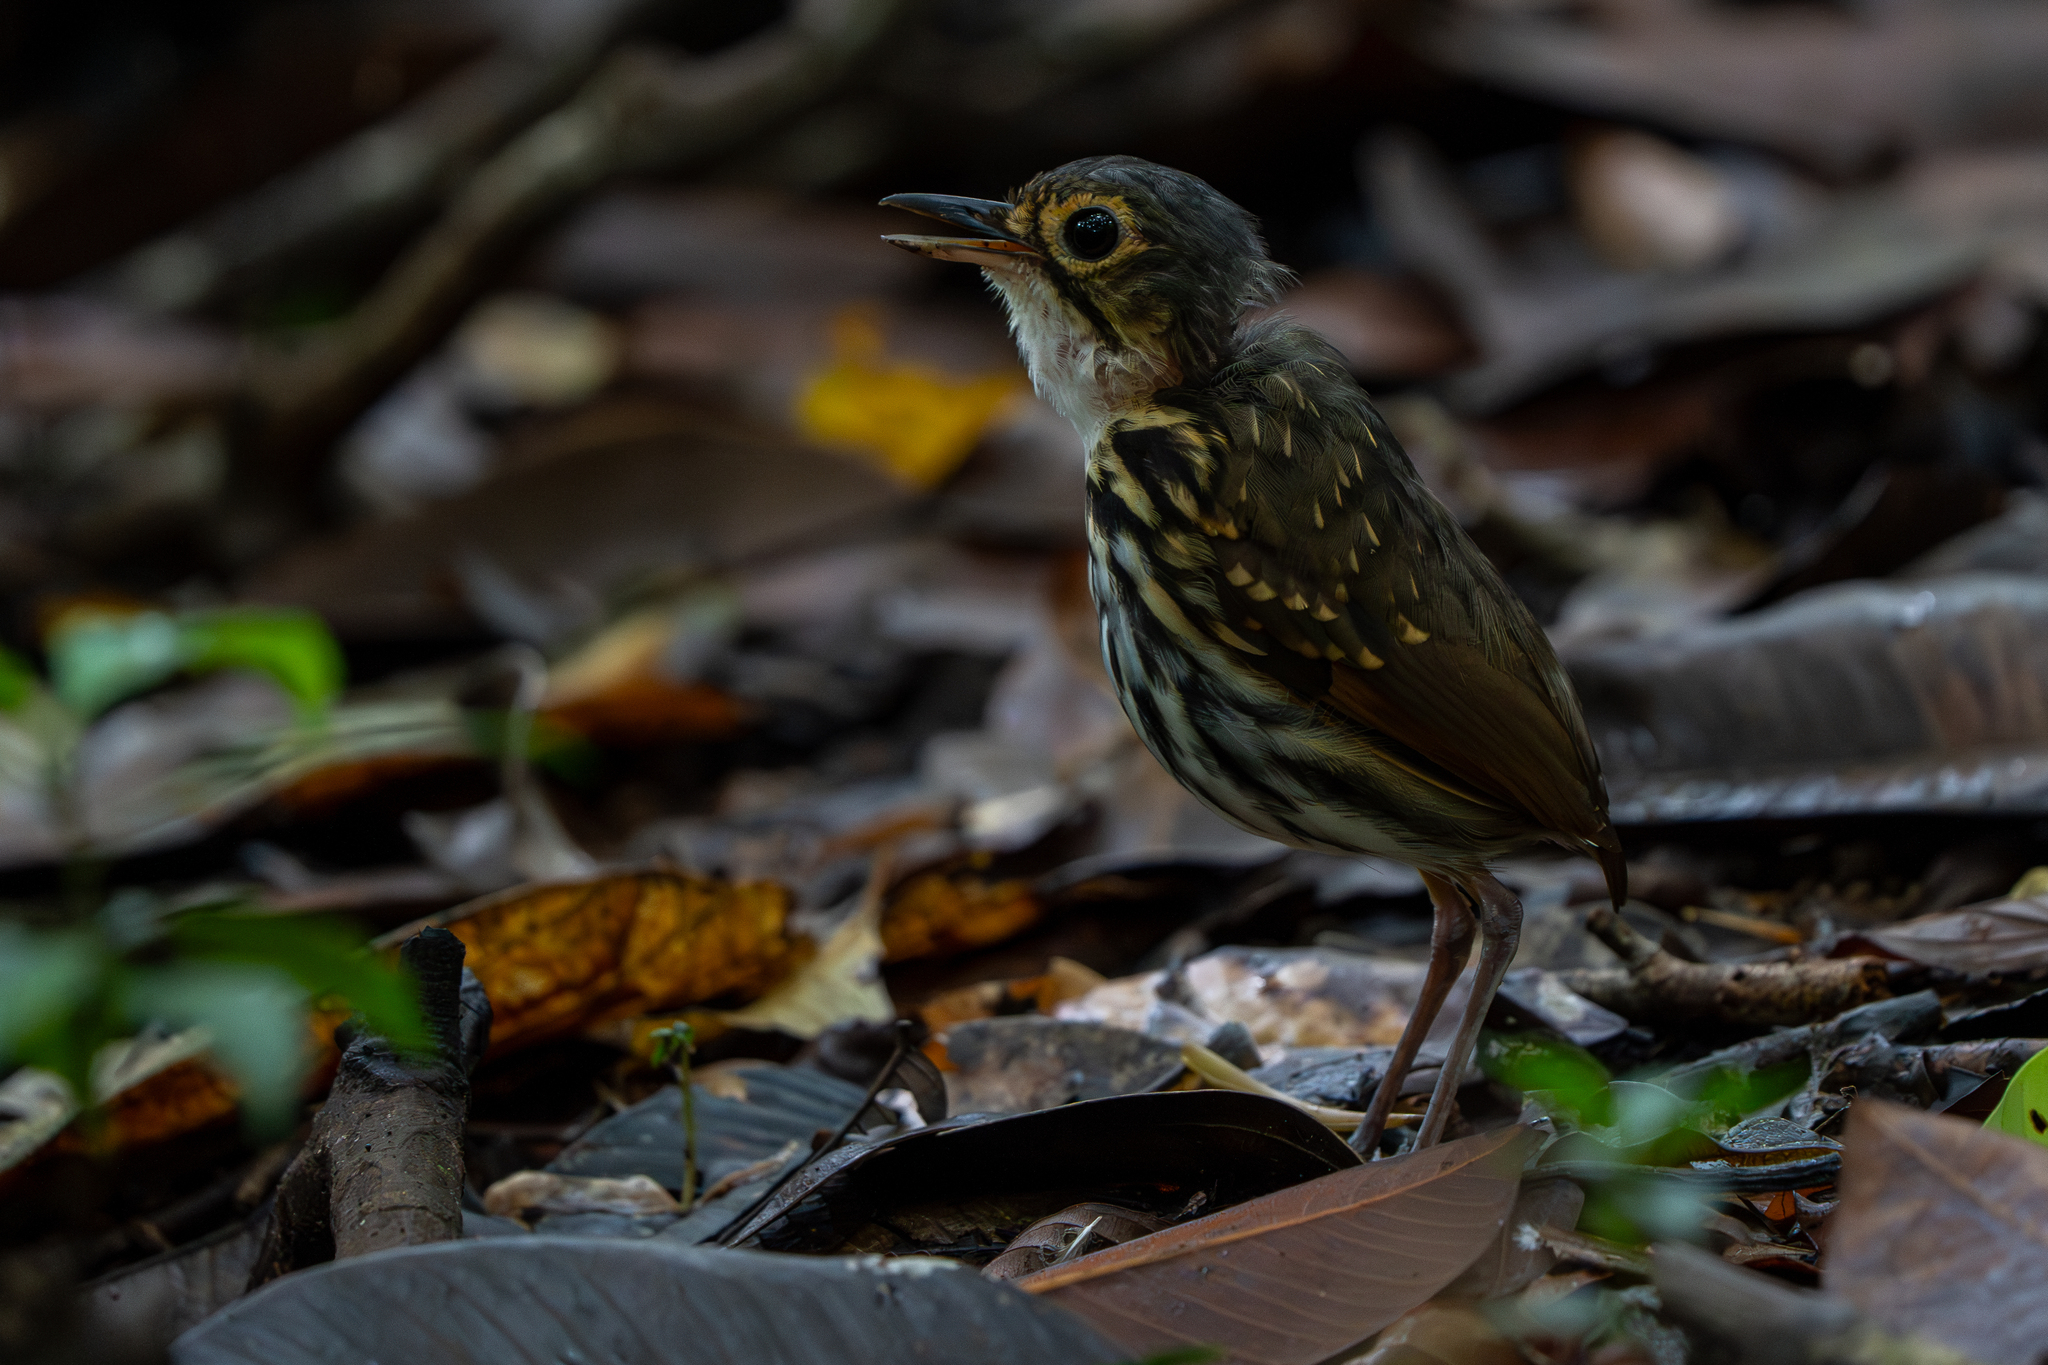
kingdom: Animalia
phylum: Chordata
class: Aves
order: Passeriformes
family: Grallariidae
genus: Hylopezus
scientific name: Hylopezus perspicillatus
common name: Streak-chested antpitta
